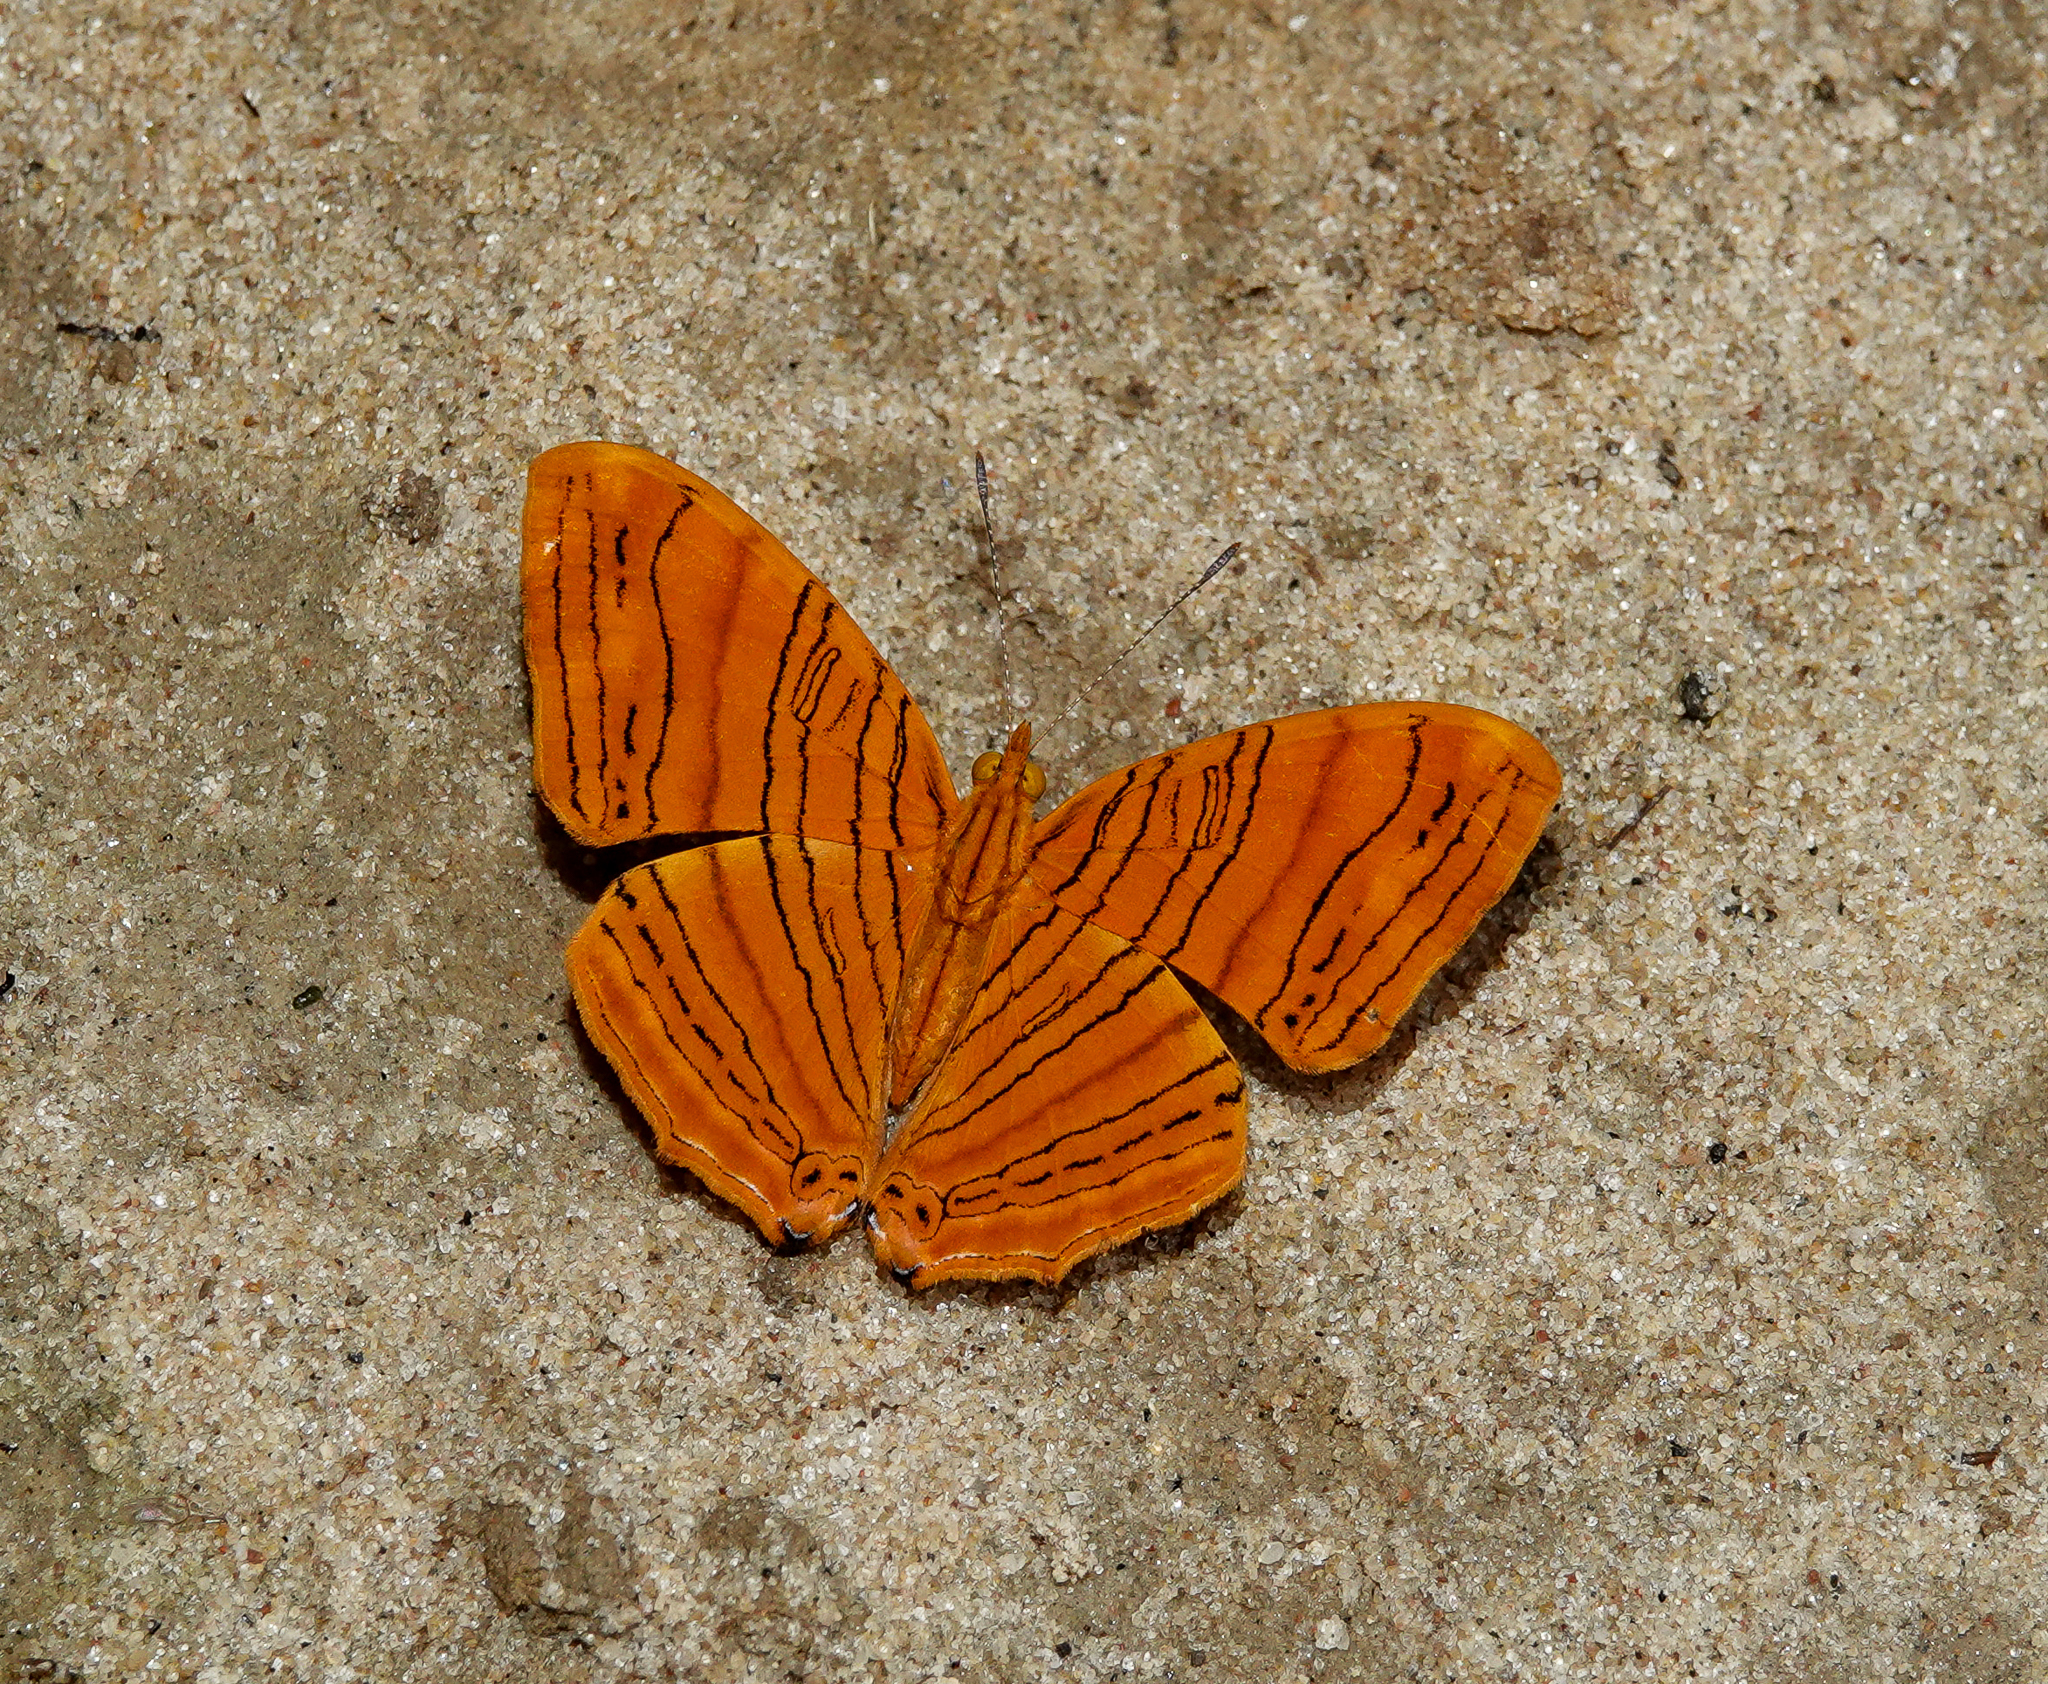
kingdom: Animalia
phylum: Arthropoda
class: Insecta
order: Lepidoptera
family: Nymphalidae
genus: Chersonesia
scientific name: Chersonesia intermedia
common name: Intermediate maplet
